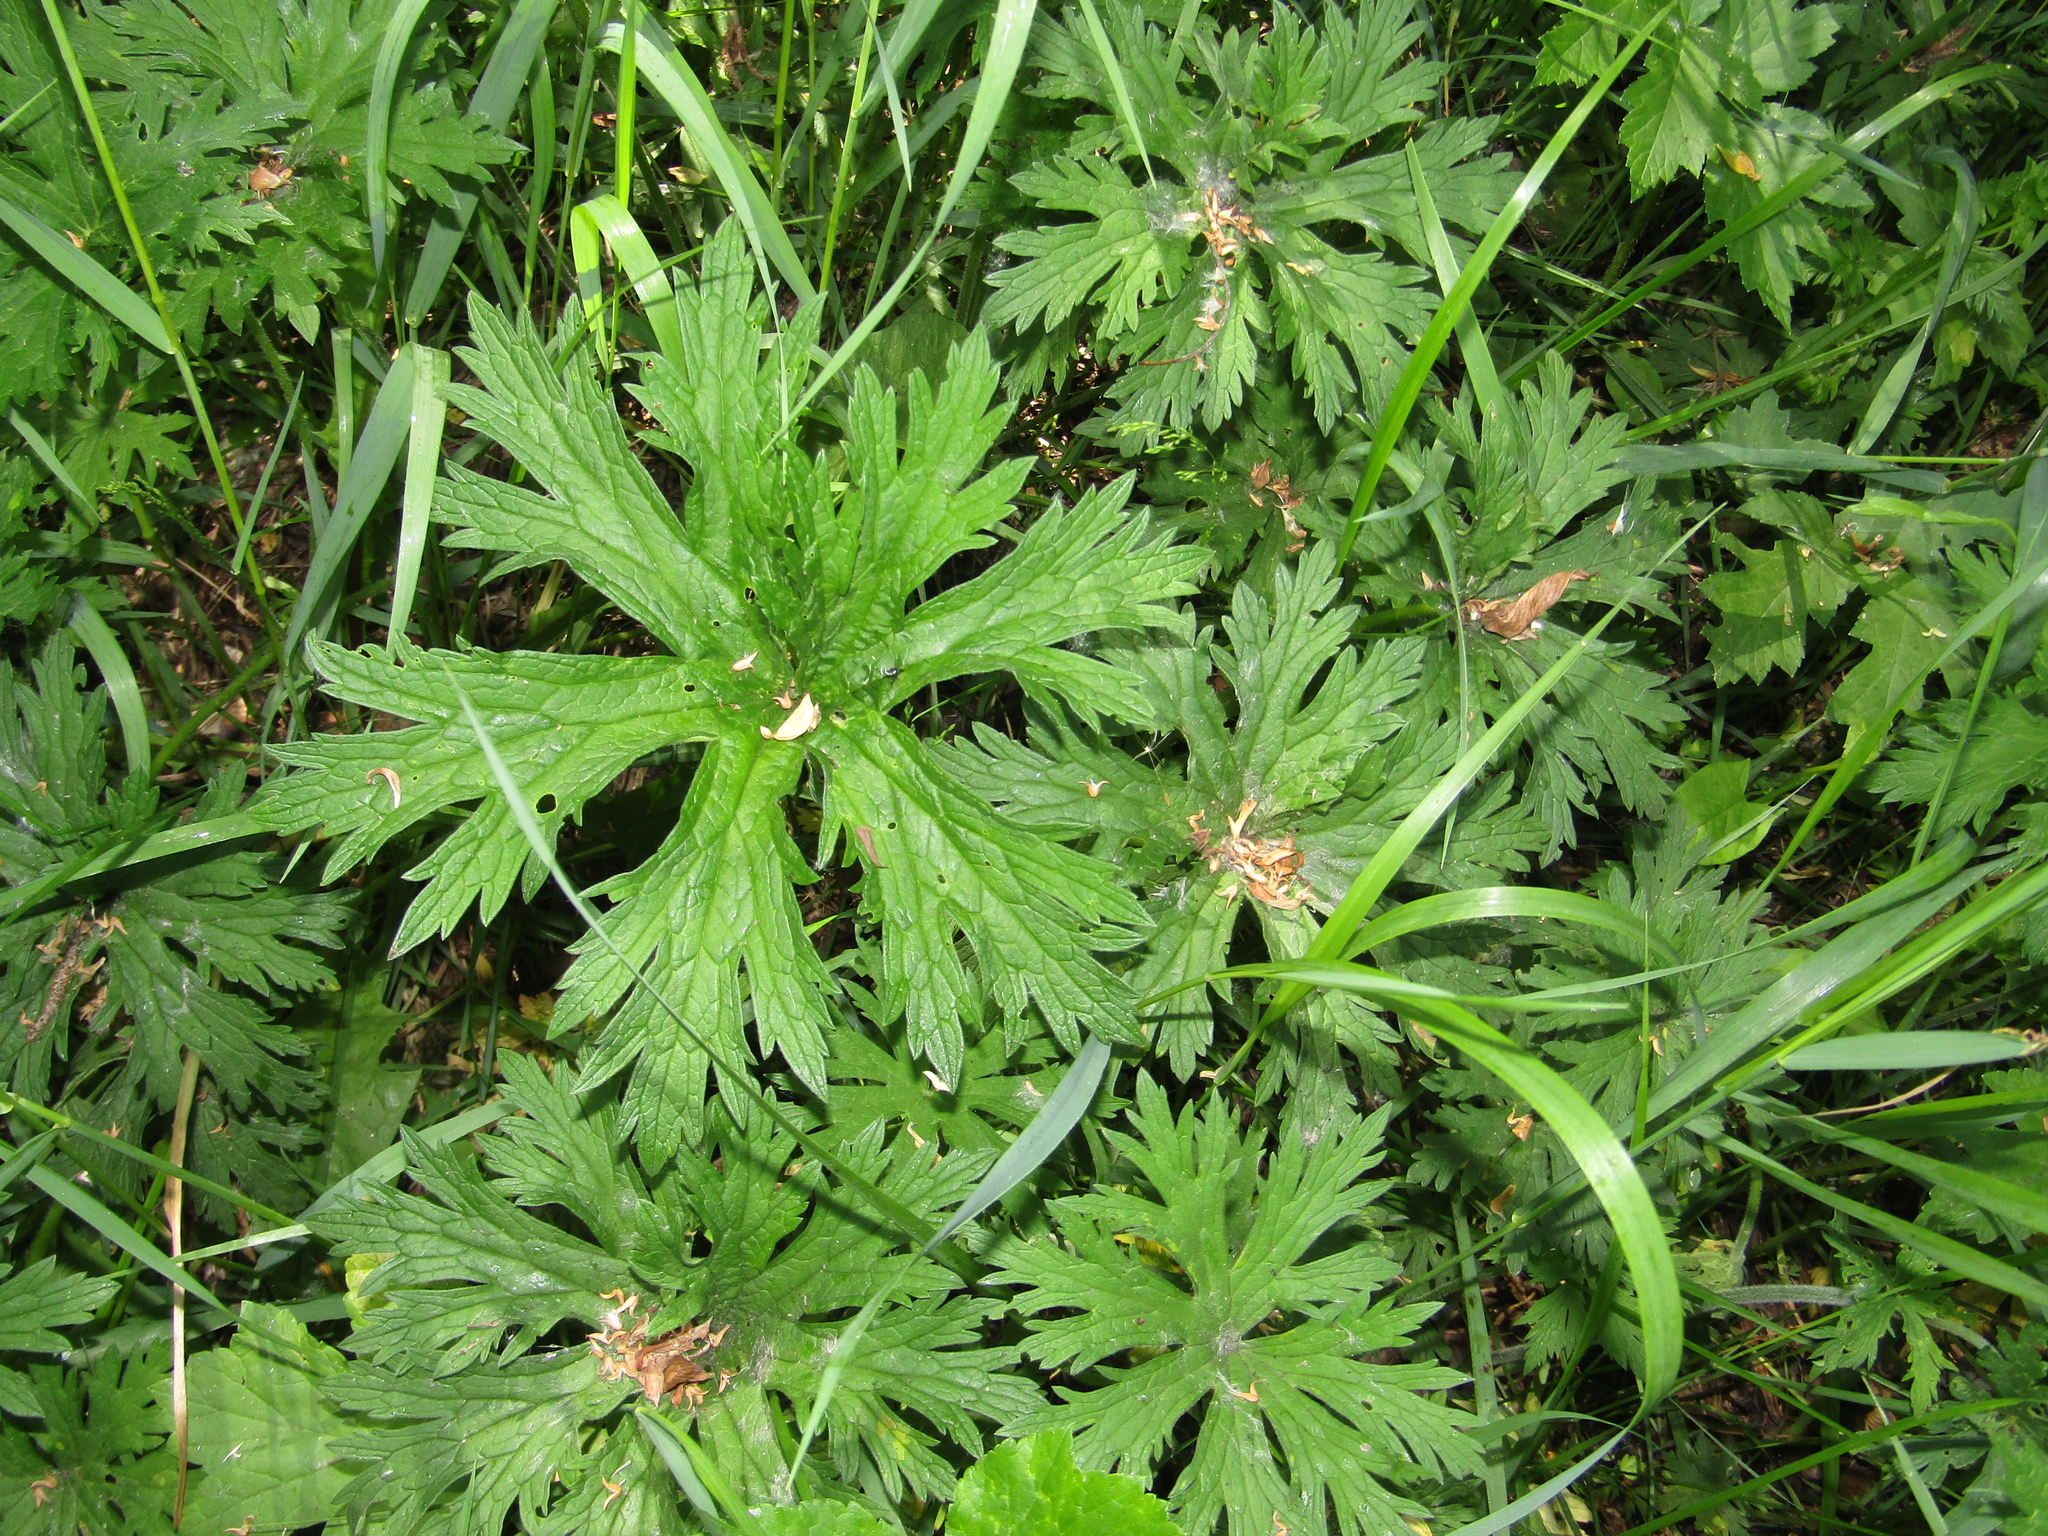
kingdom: Plantae
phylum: Tracheophyta
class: Magnoliopsida
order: Geraniales
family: Geraniaceae
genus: Geranium
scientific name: Geranium pratense
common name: Meadow crane's-bill
